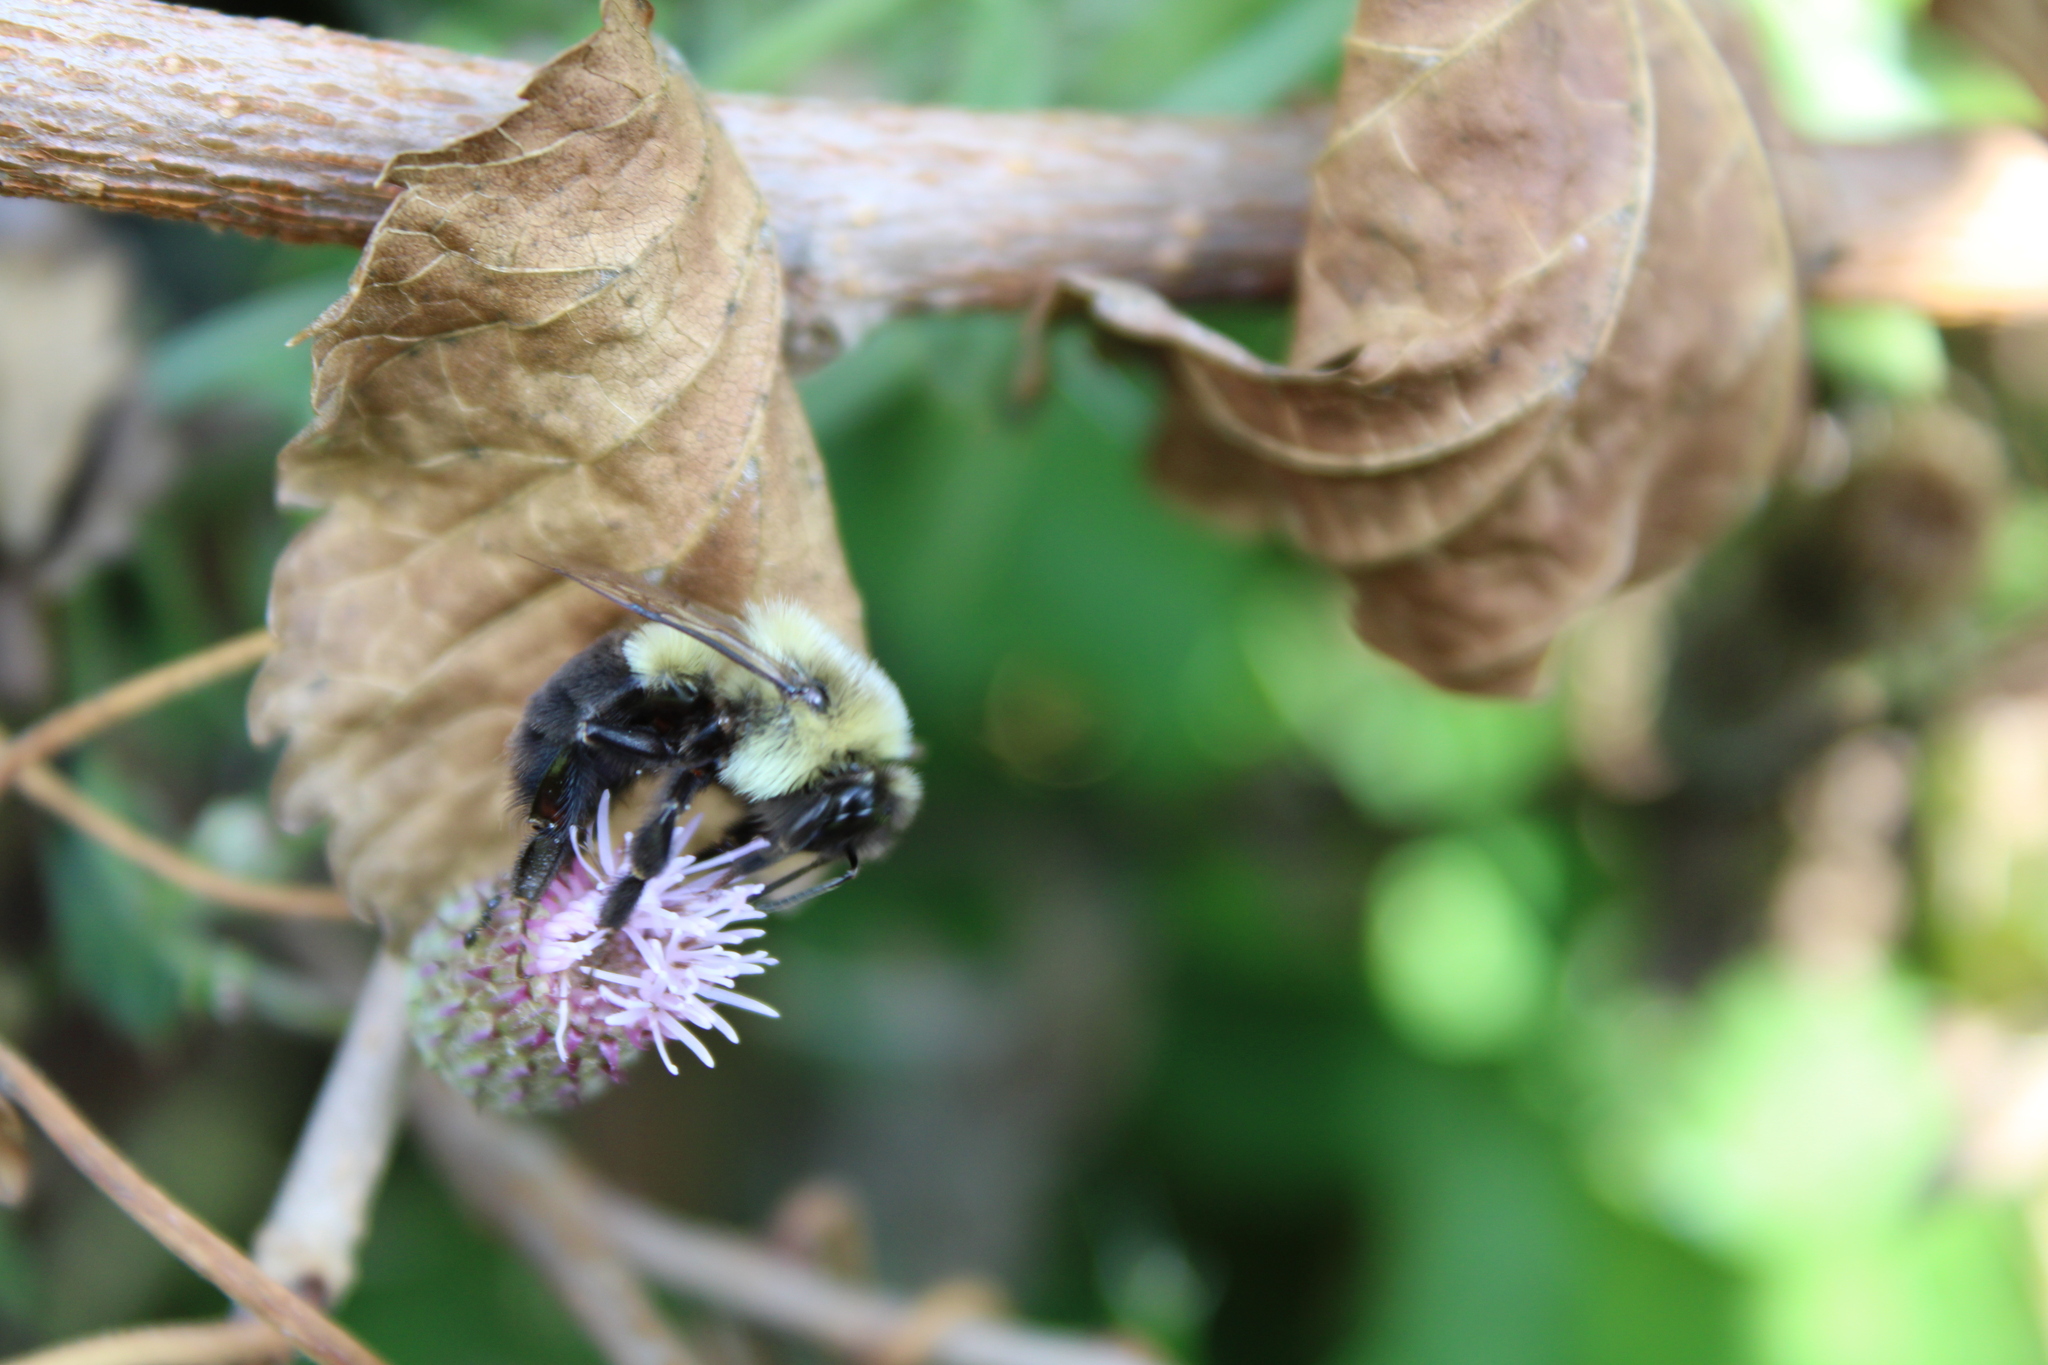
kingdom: Animalia
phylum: Arthropoda
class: Insecta
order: Hymenoptera
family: Apidae
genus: Bombus
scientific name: Bombus impatiens
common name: Common eastern bumble bee
